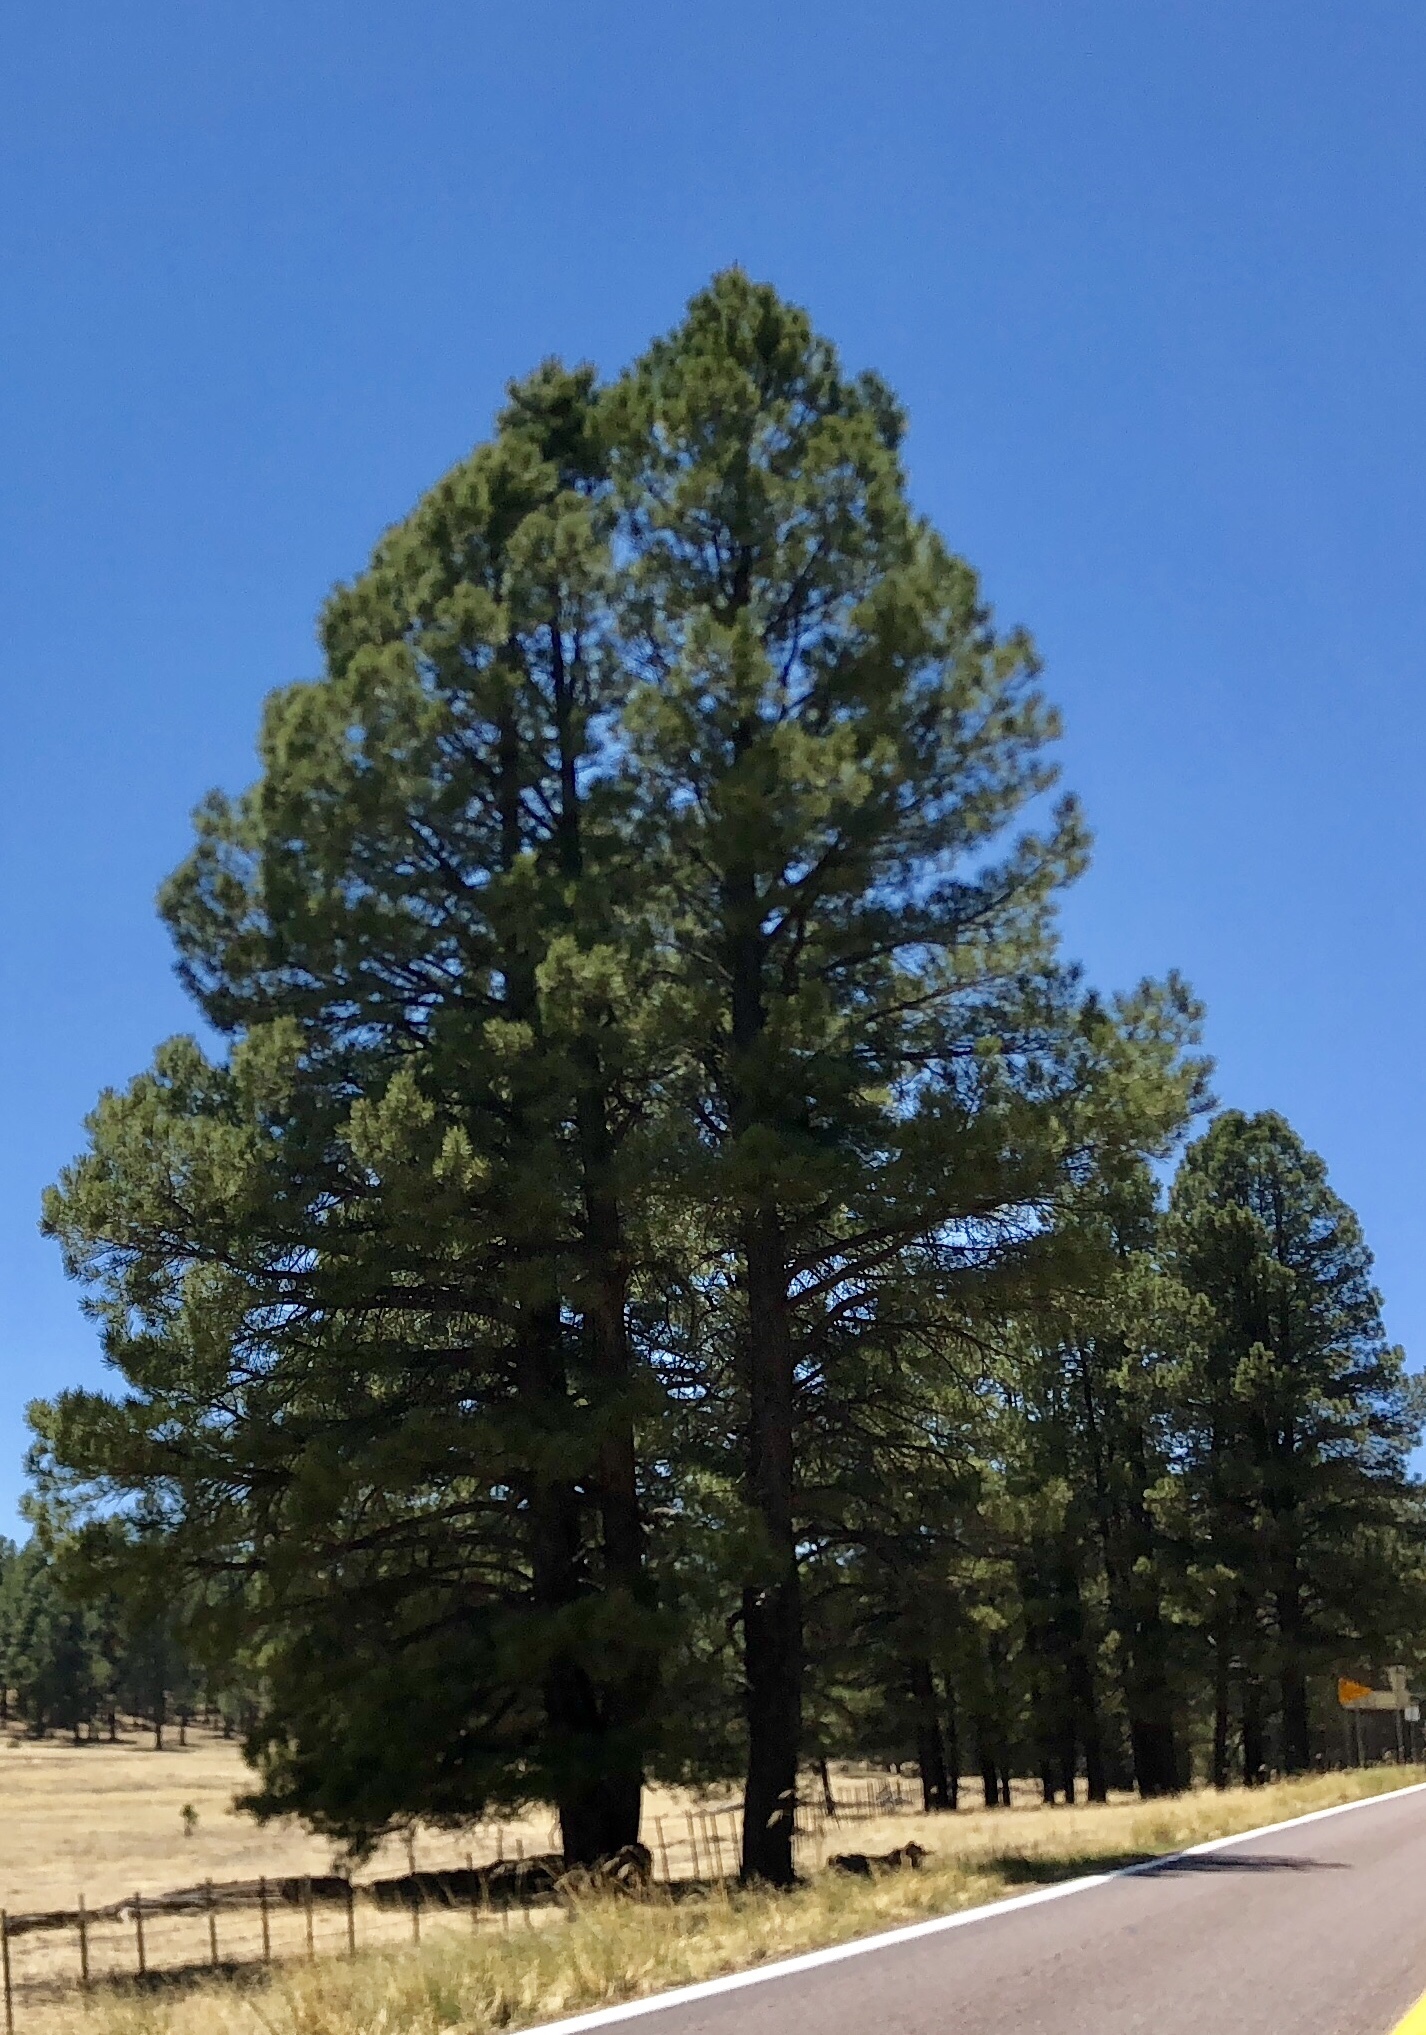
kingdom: Plantae
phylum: Tracheophyta
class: Pinopsida
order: Pinales
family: Pinaceae
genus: Pinus
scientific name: Pinus ponderosa
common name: Western yellow-pine
